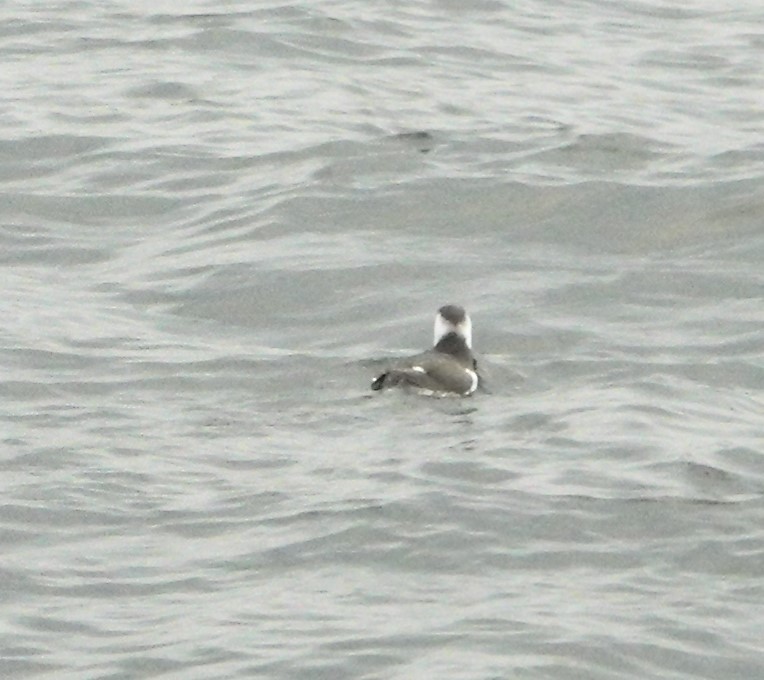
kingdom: Animalia
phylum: Chordata
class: Aves
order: Charadriiformes
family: Alcidae
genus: Brachyramphus
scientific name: Brachyramphus marmoratus
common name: Marbled murrelet
